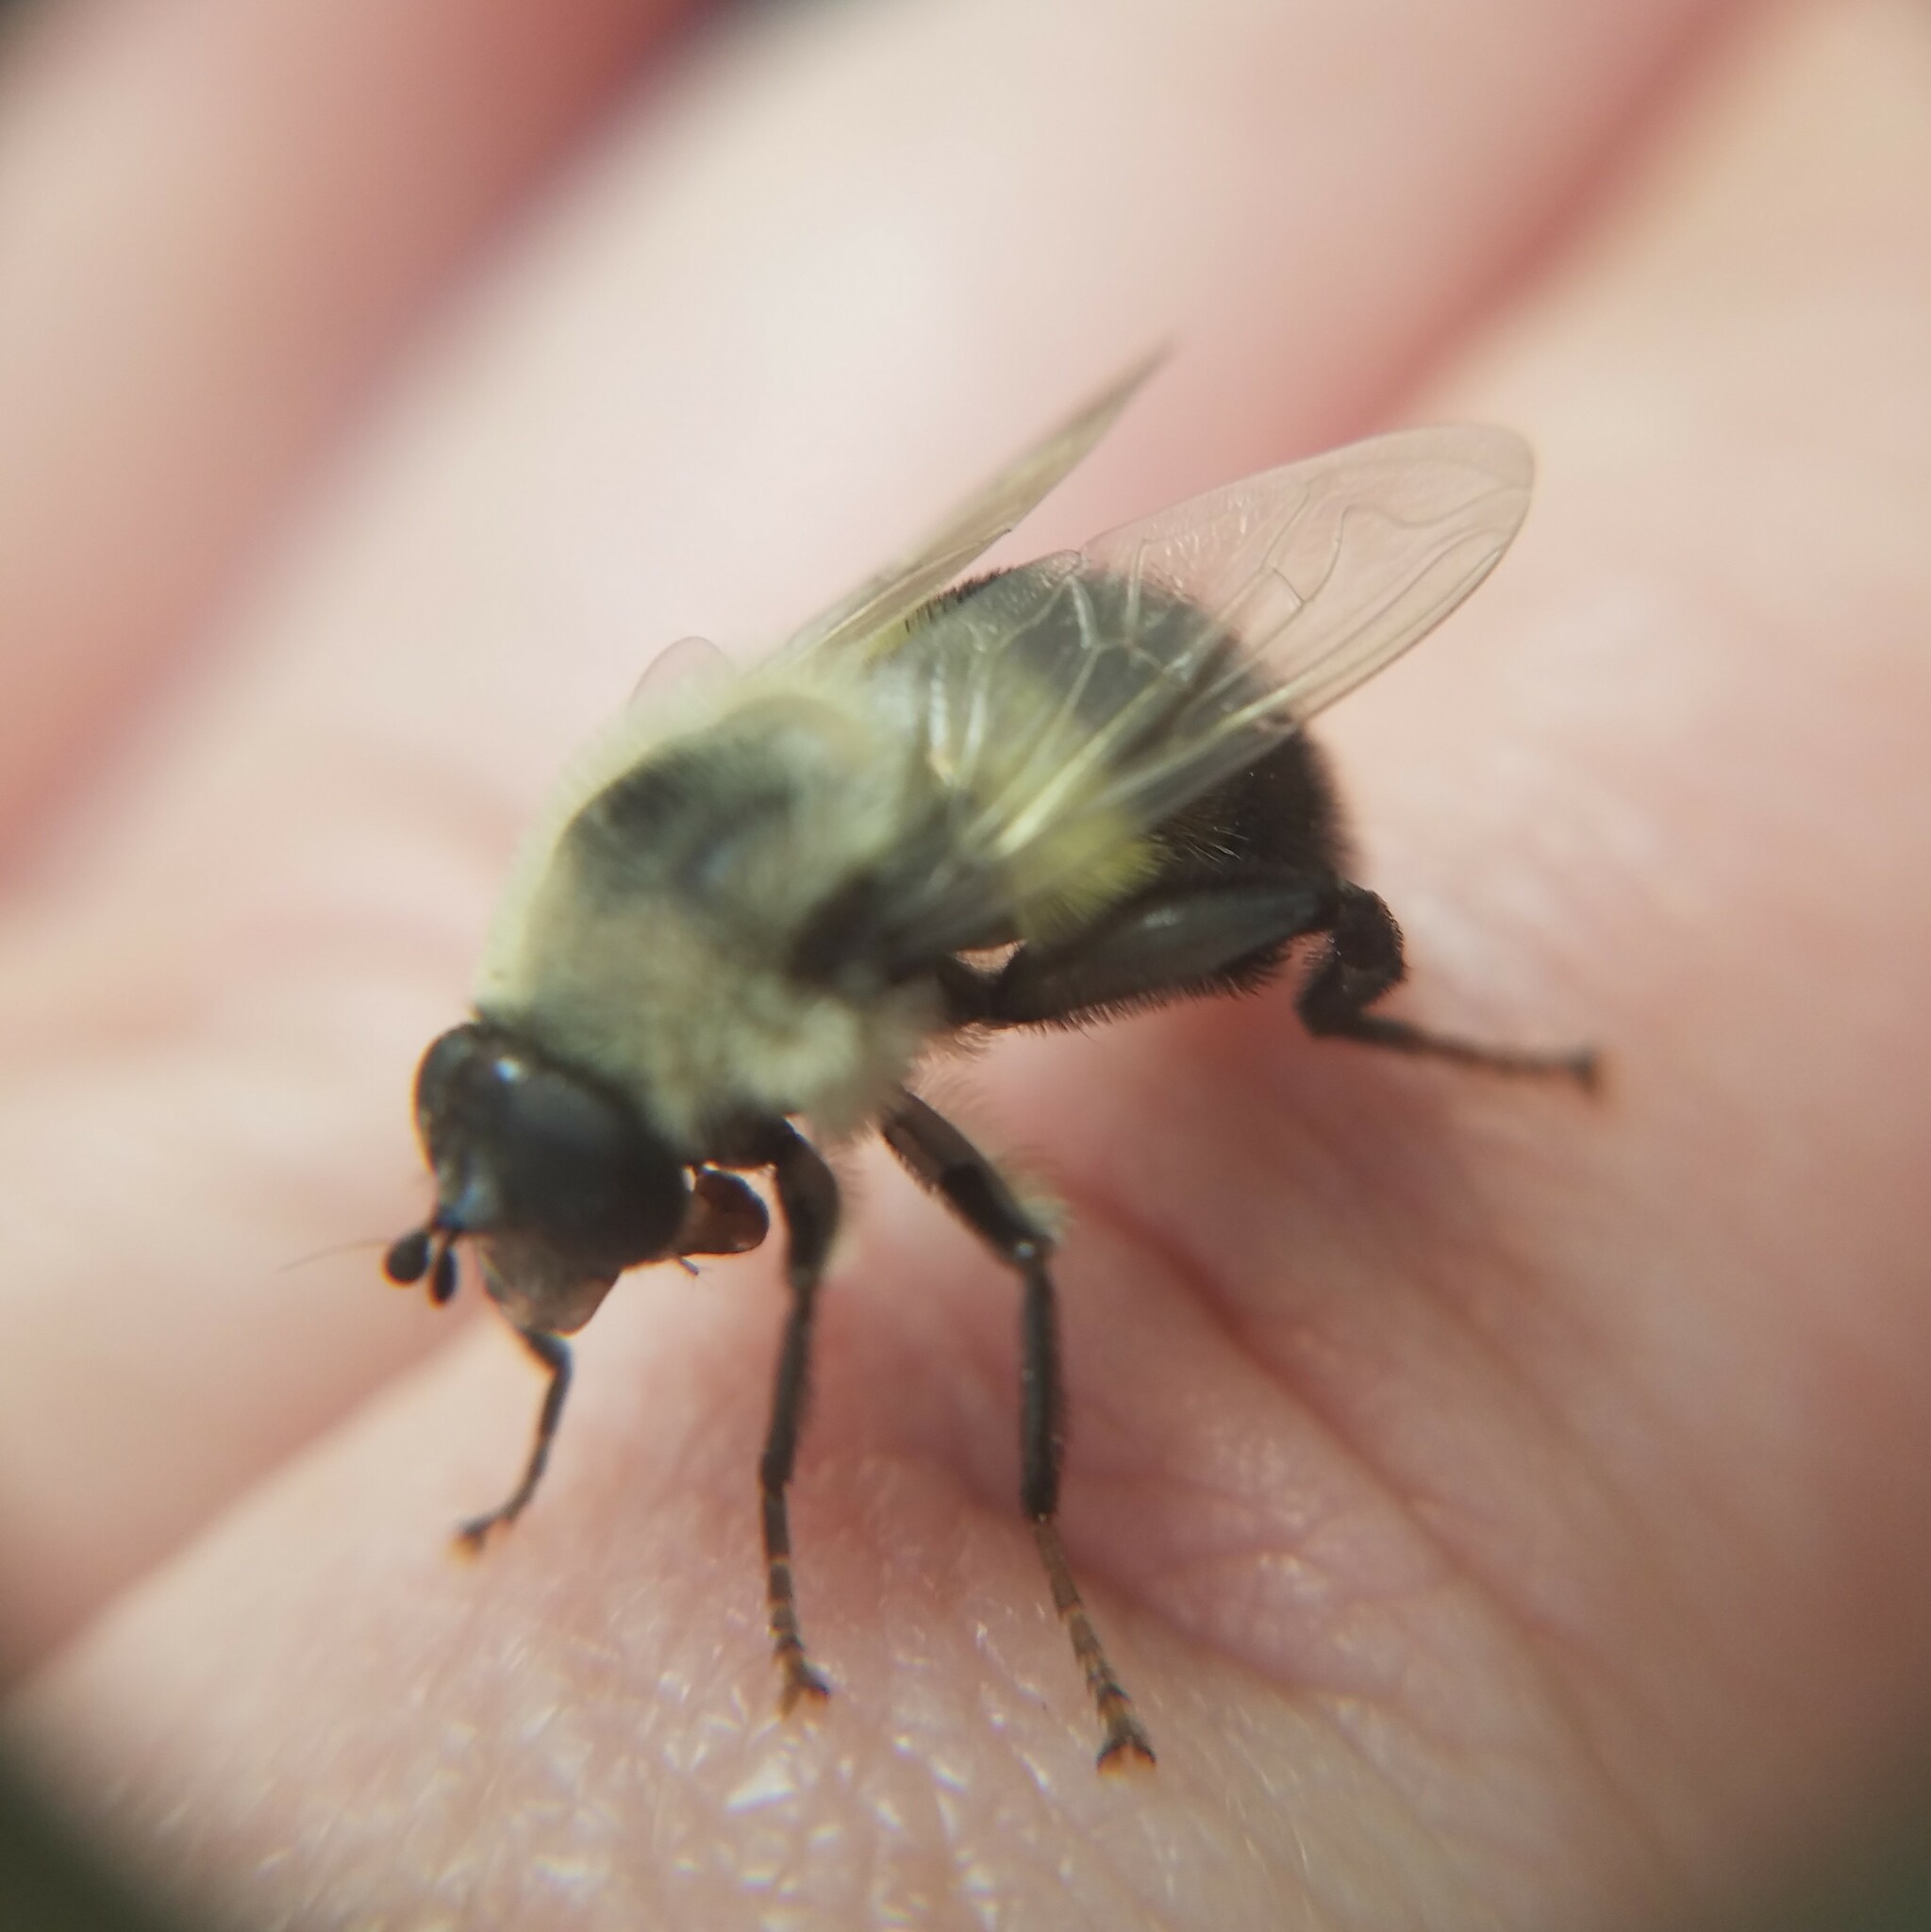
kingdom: Animalia
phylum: Arthropoda
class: Insecta
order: Diptera
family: Syrphidae
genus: Imatisma
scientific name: Imatisma posticata
